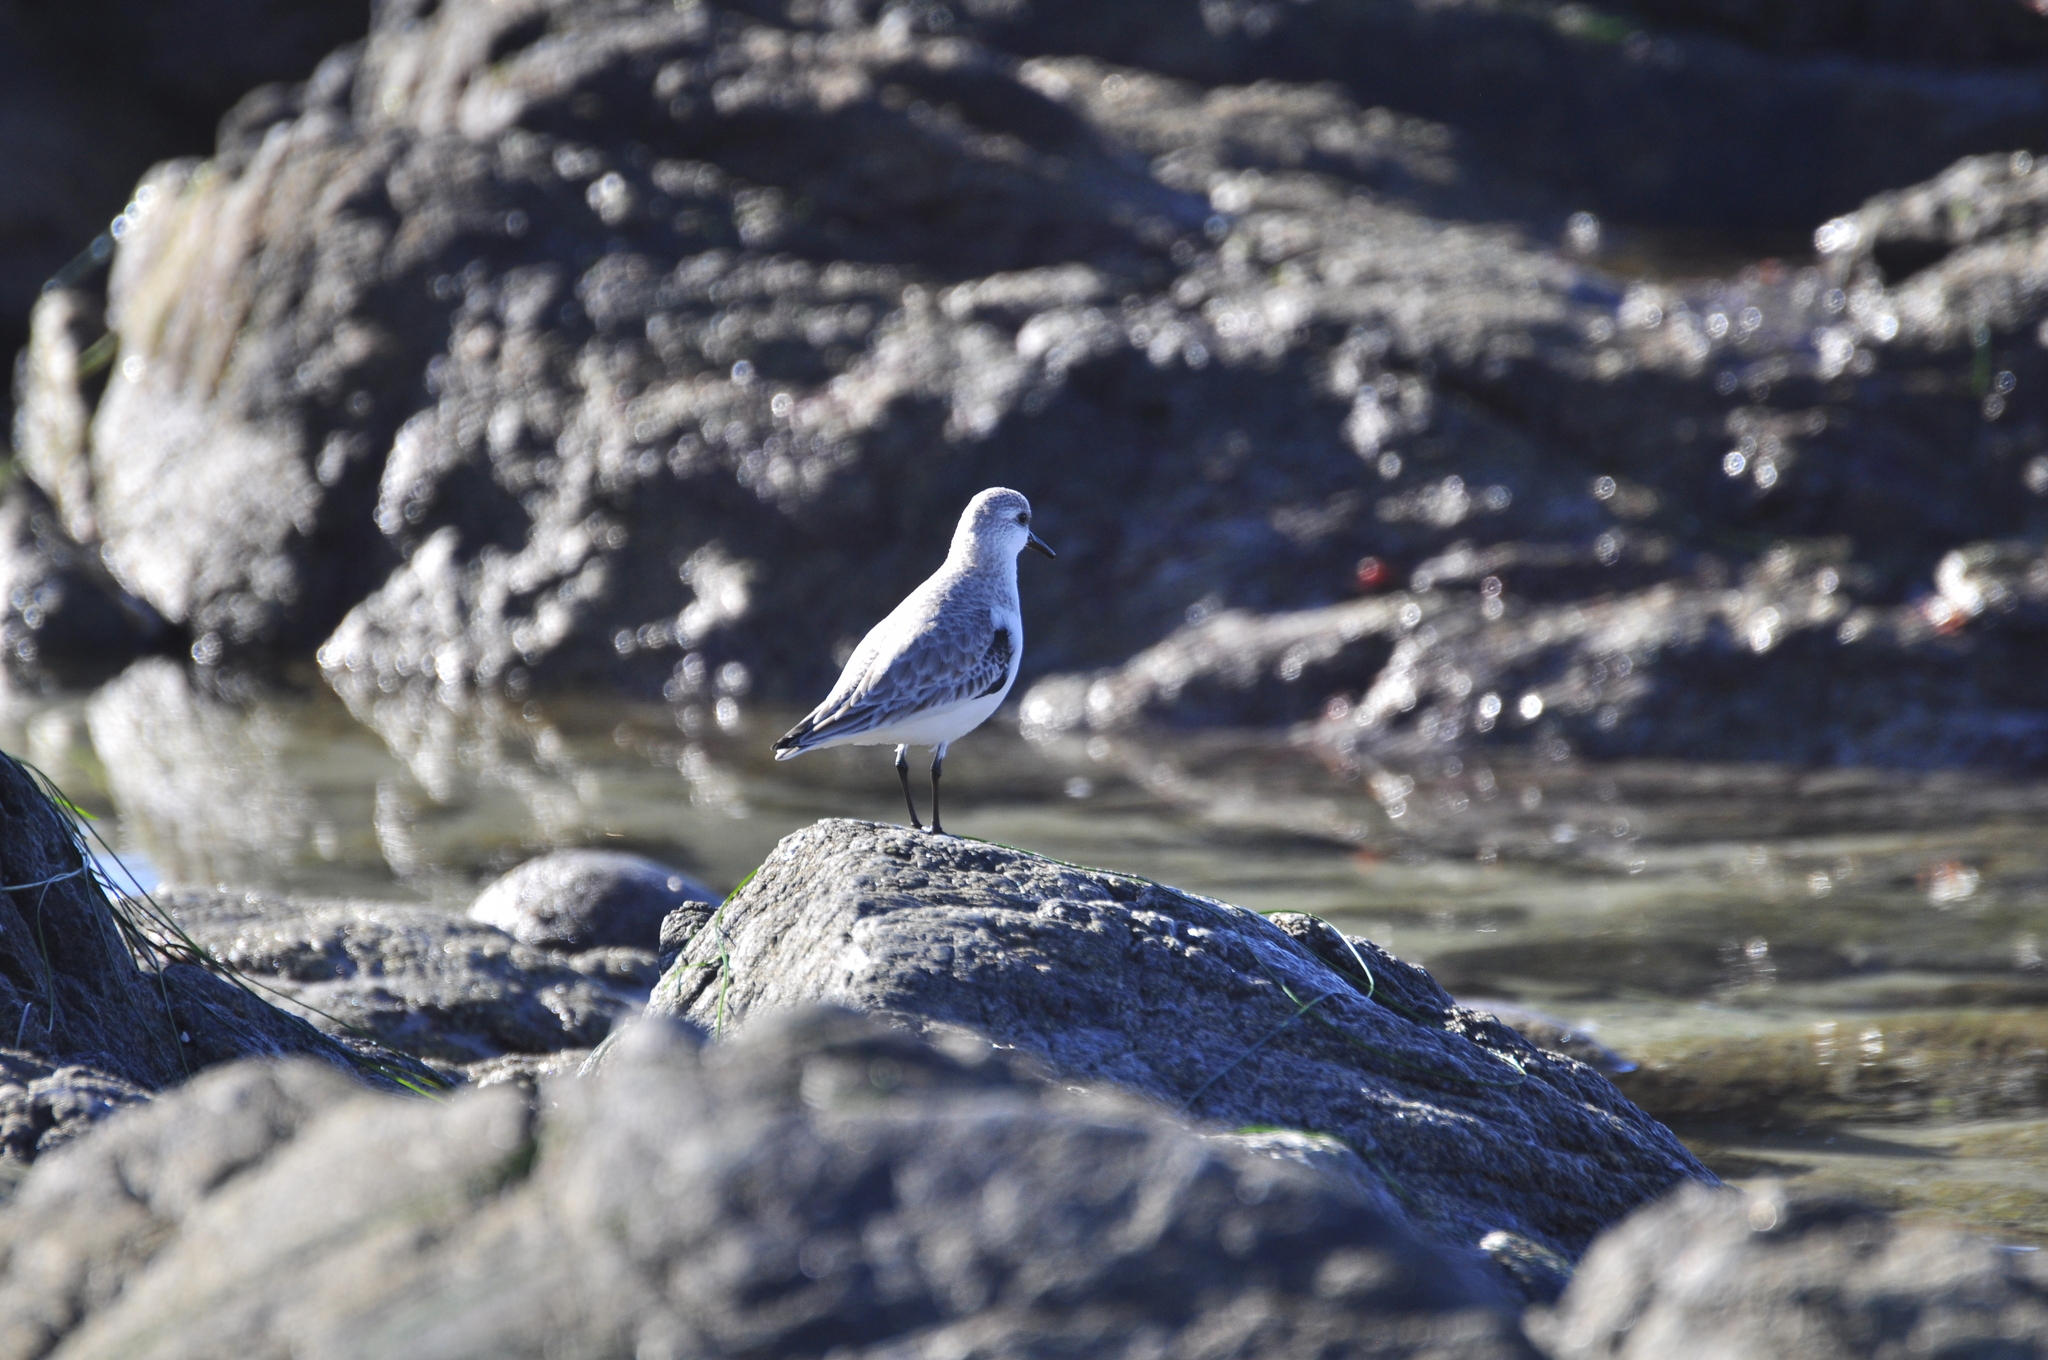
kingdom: Animalia
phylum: Chordata
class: Aves
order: Charadriiformes
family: Charadriidae
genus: Pluvialis
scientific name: Pluvialis squatarola
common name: Grey plover
